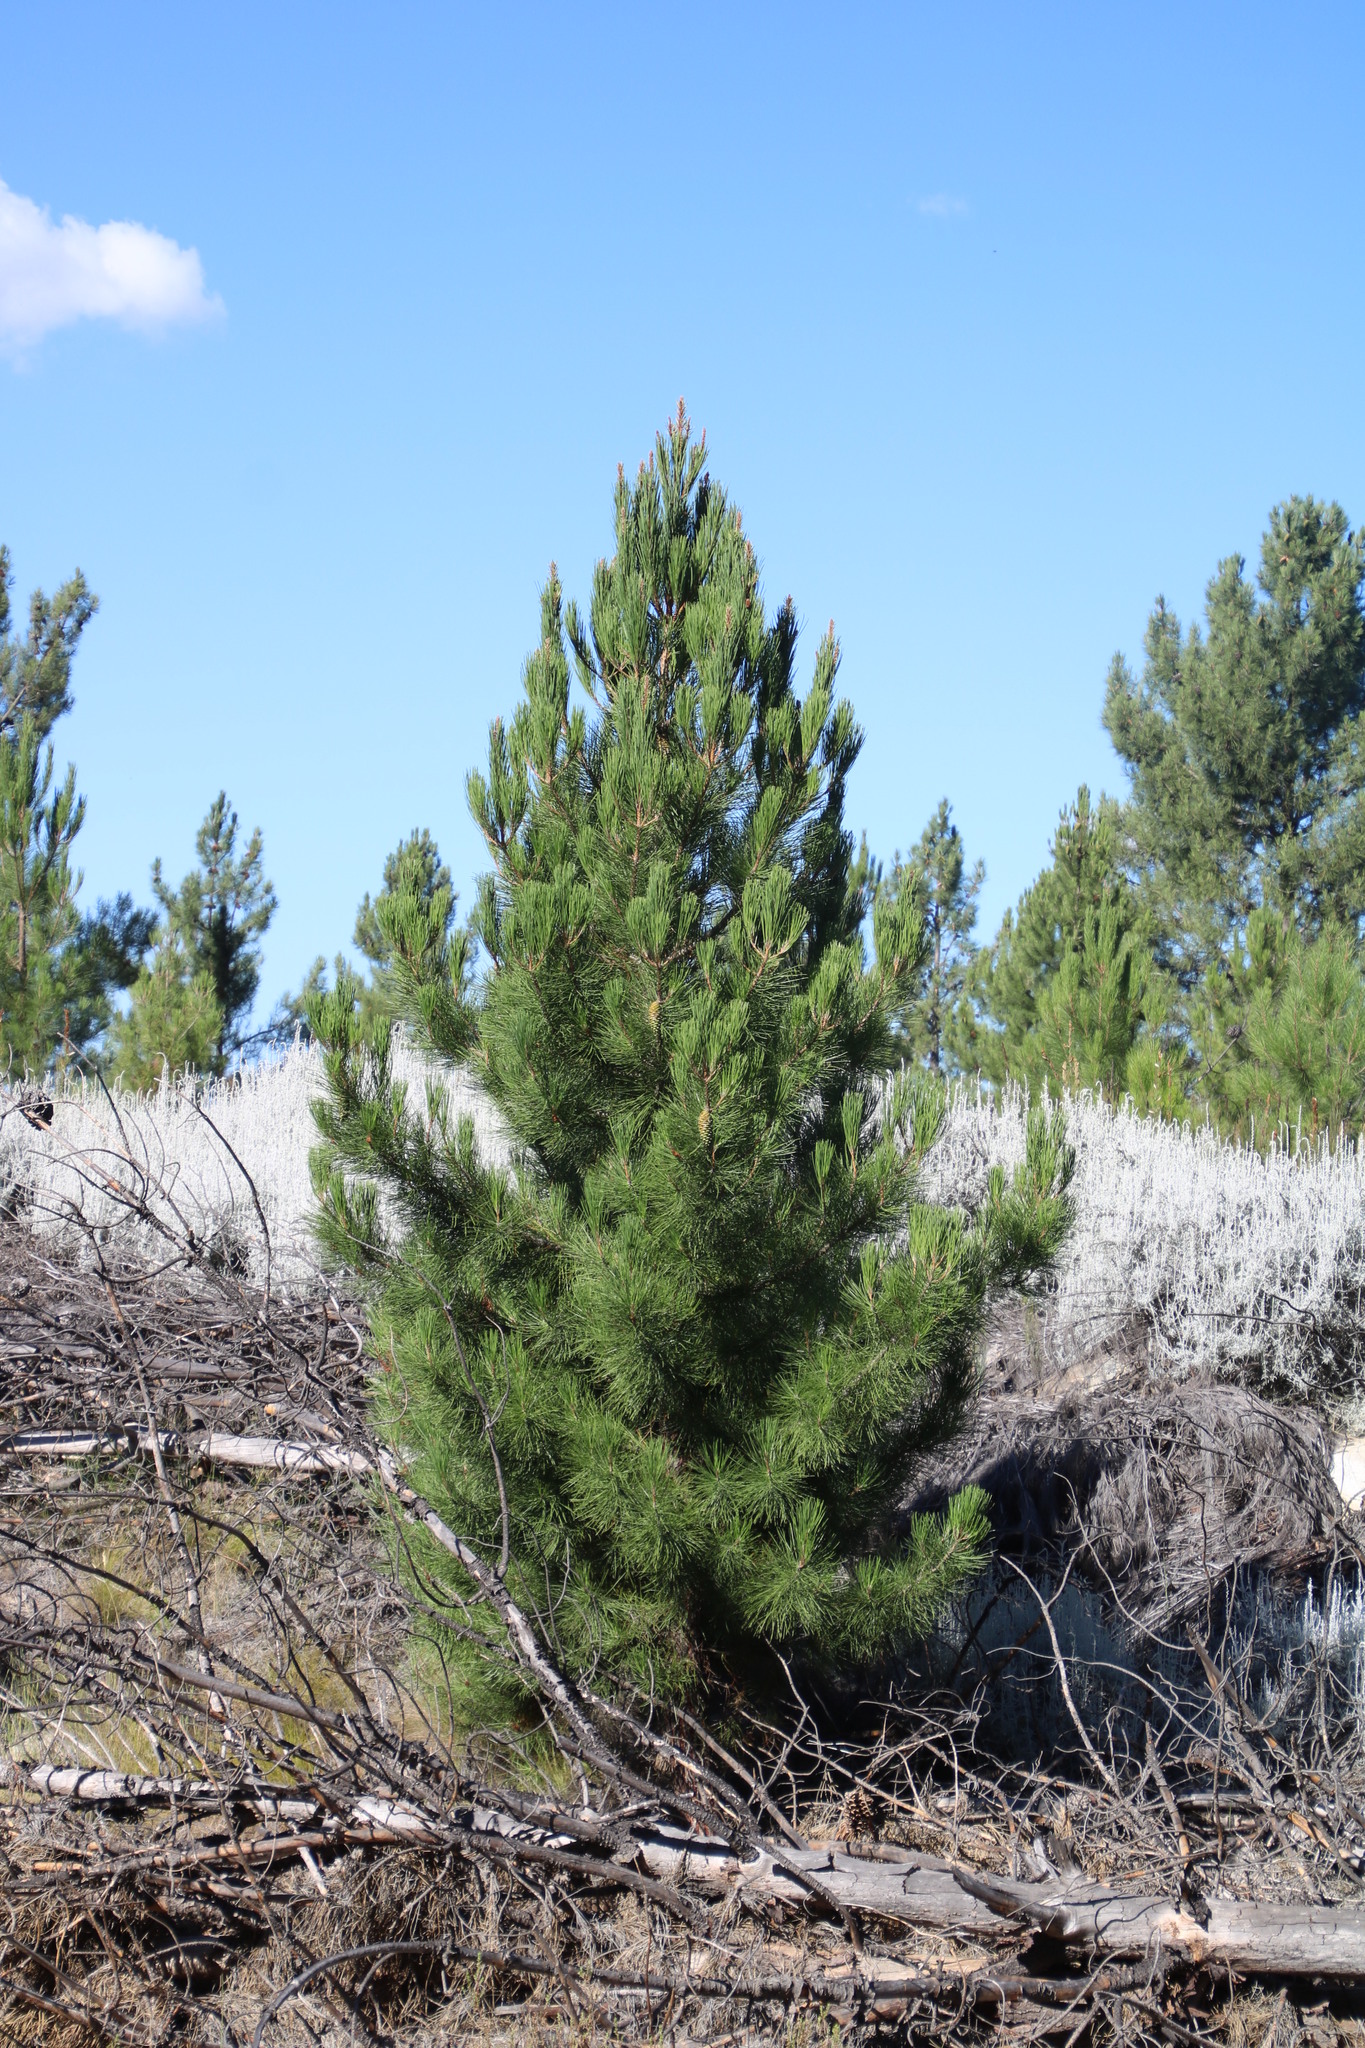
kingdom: Plantae
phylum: Tracheophyta
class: Pinopsida
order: Pinales
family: Pinaceae
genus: Pinus
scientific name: Pinus pinaster
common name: Maritime pine
